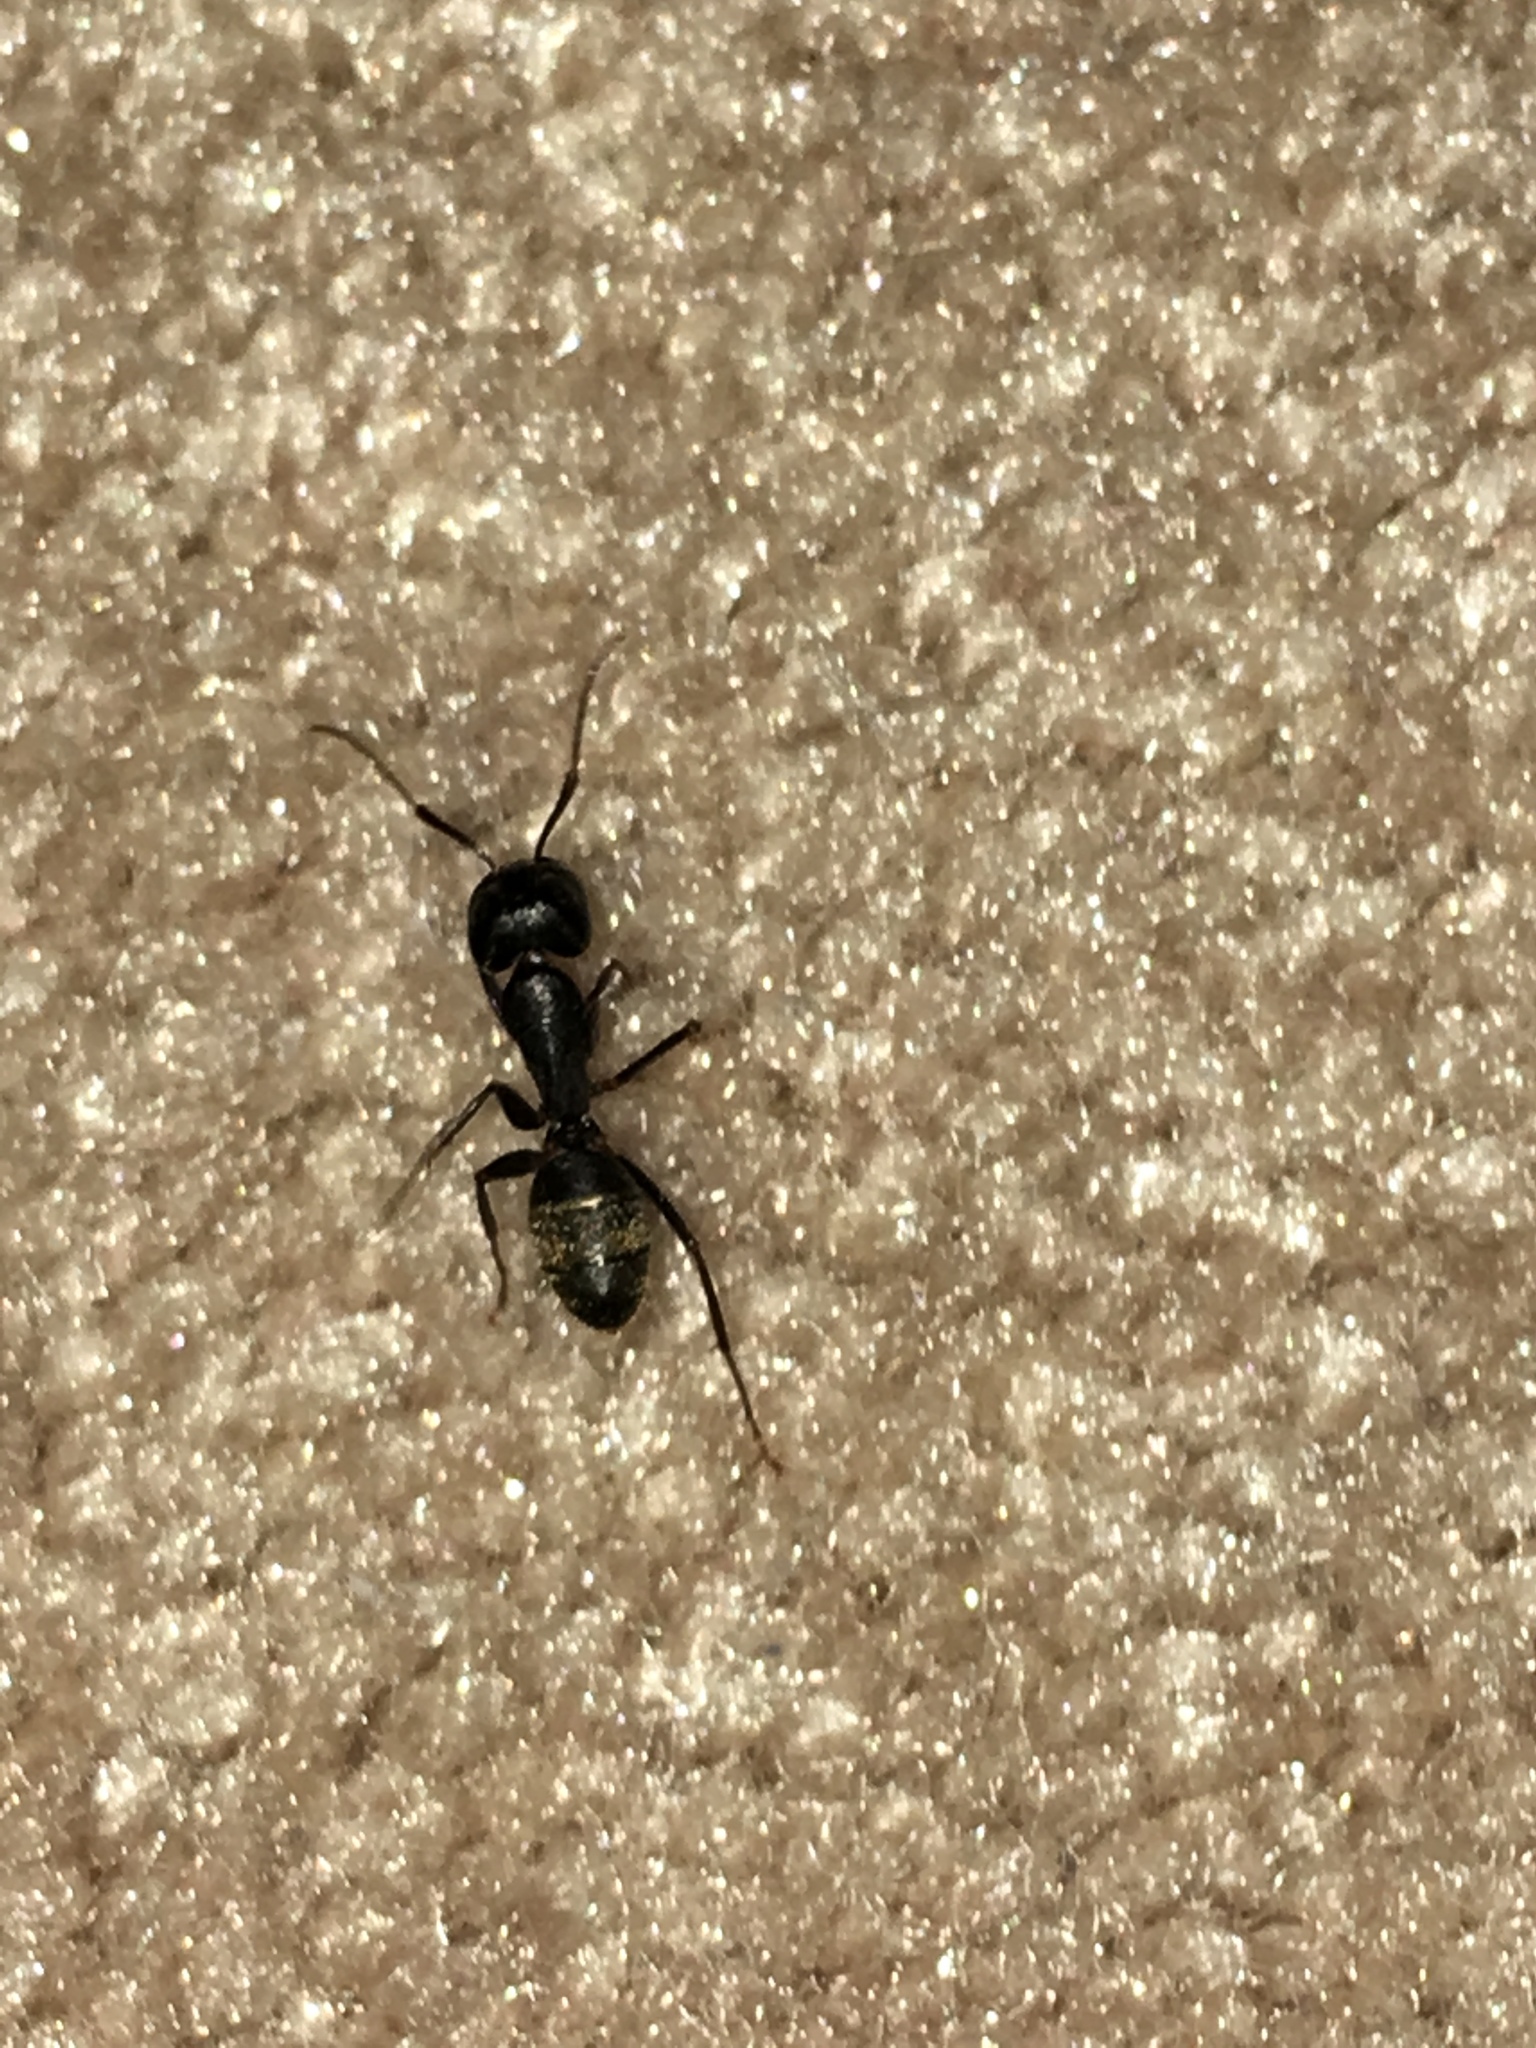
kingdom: Animalia
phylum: Arthropoda
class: Insecta
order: Hymenoptera
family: Formicidae
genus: Camponotus
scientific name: Camponotus pennsylvanicus
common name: Black carpenter ant
